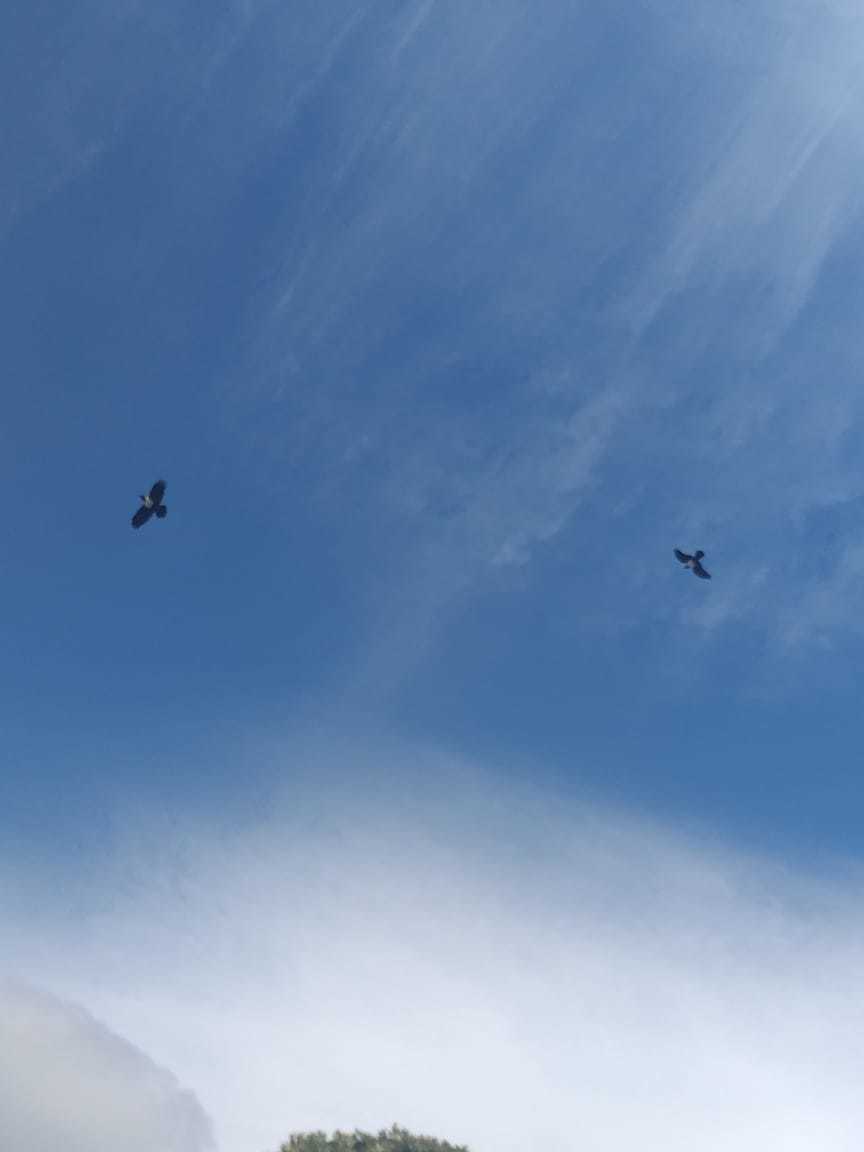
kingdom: Animalia
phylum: Chordata
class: Aves
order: Passeriformes
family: Corvidae
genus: Corvus
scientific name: Corvus albus
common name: Pied crow
